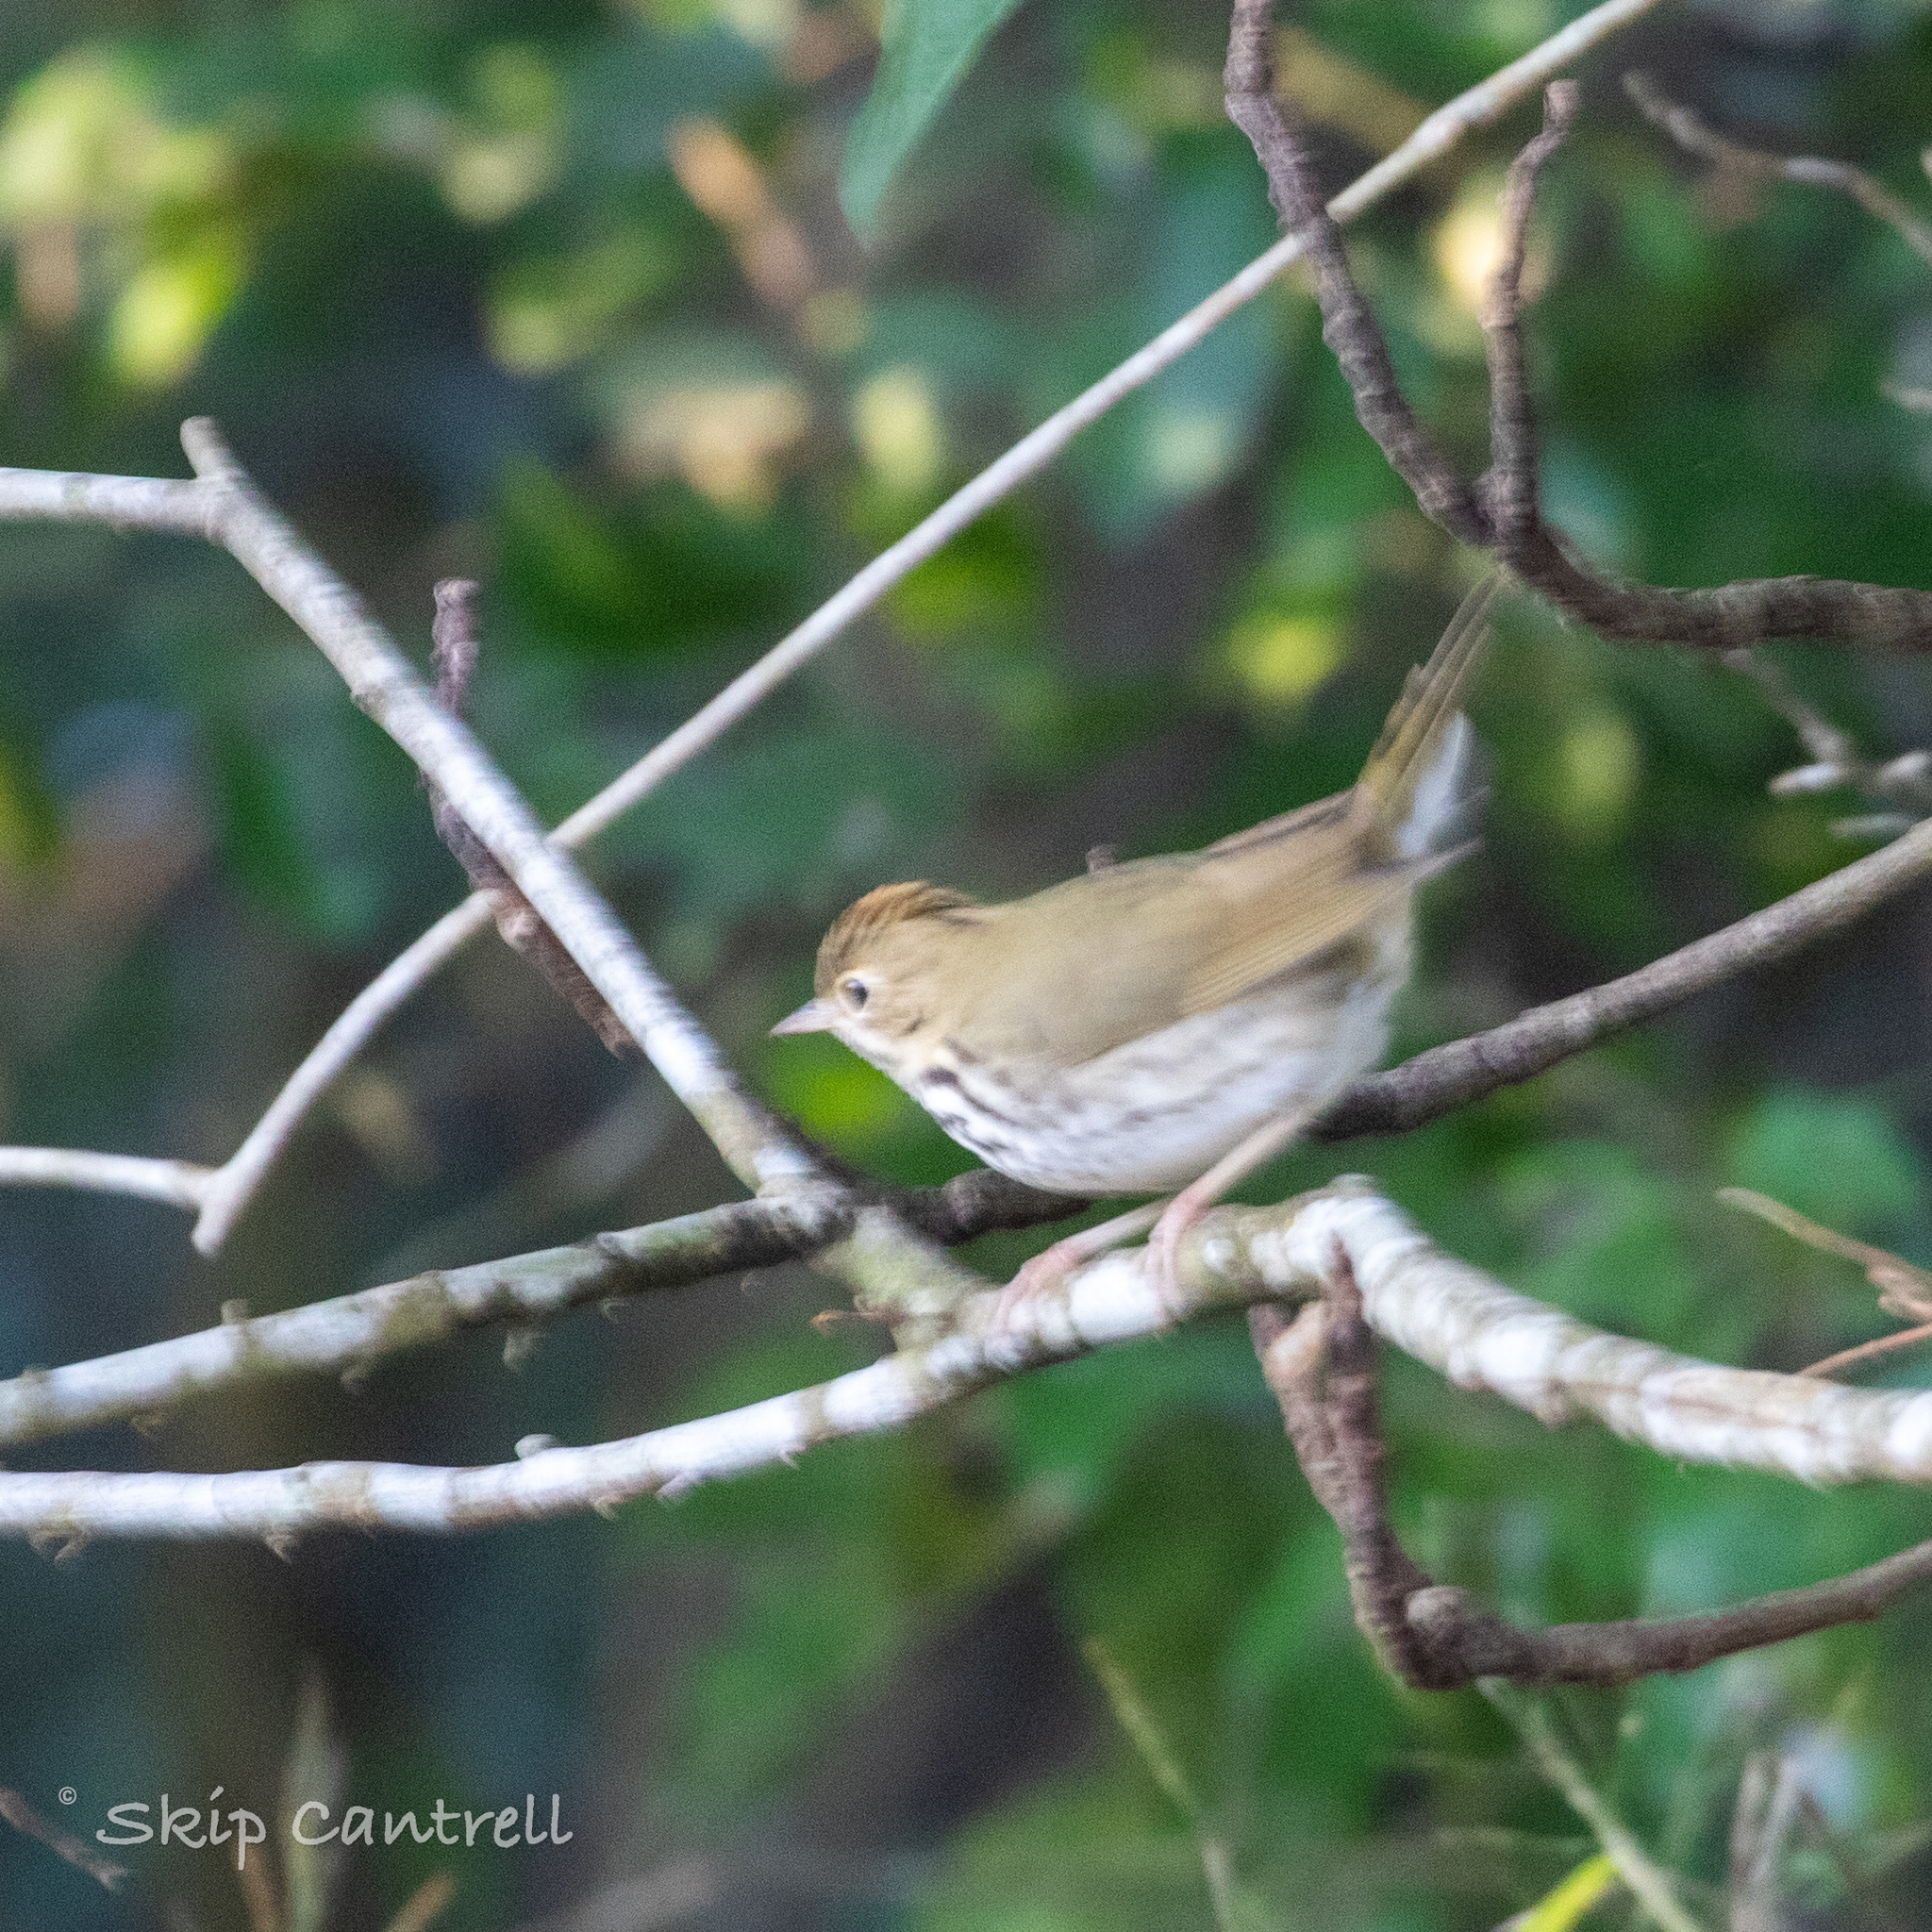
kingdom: Animalia
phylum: Chordata
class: Aves
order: Passeriformes
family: Parulidae
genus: Seiurus
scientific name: Seiurus aurocapilla
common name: Ovenbird
